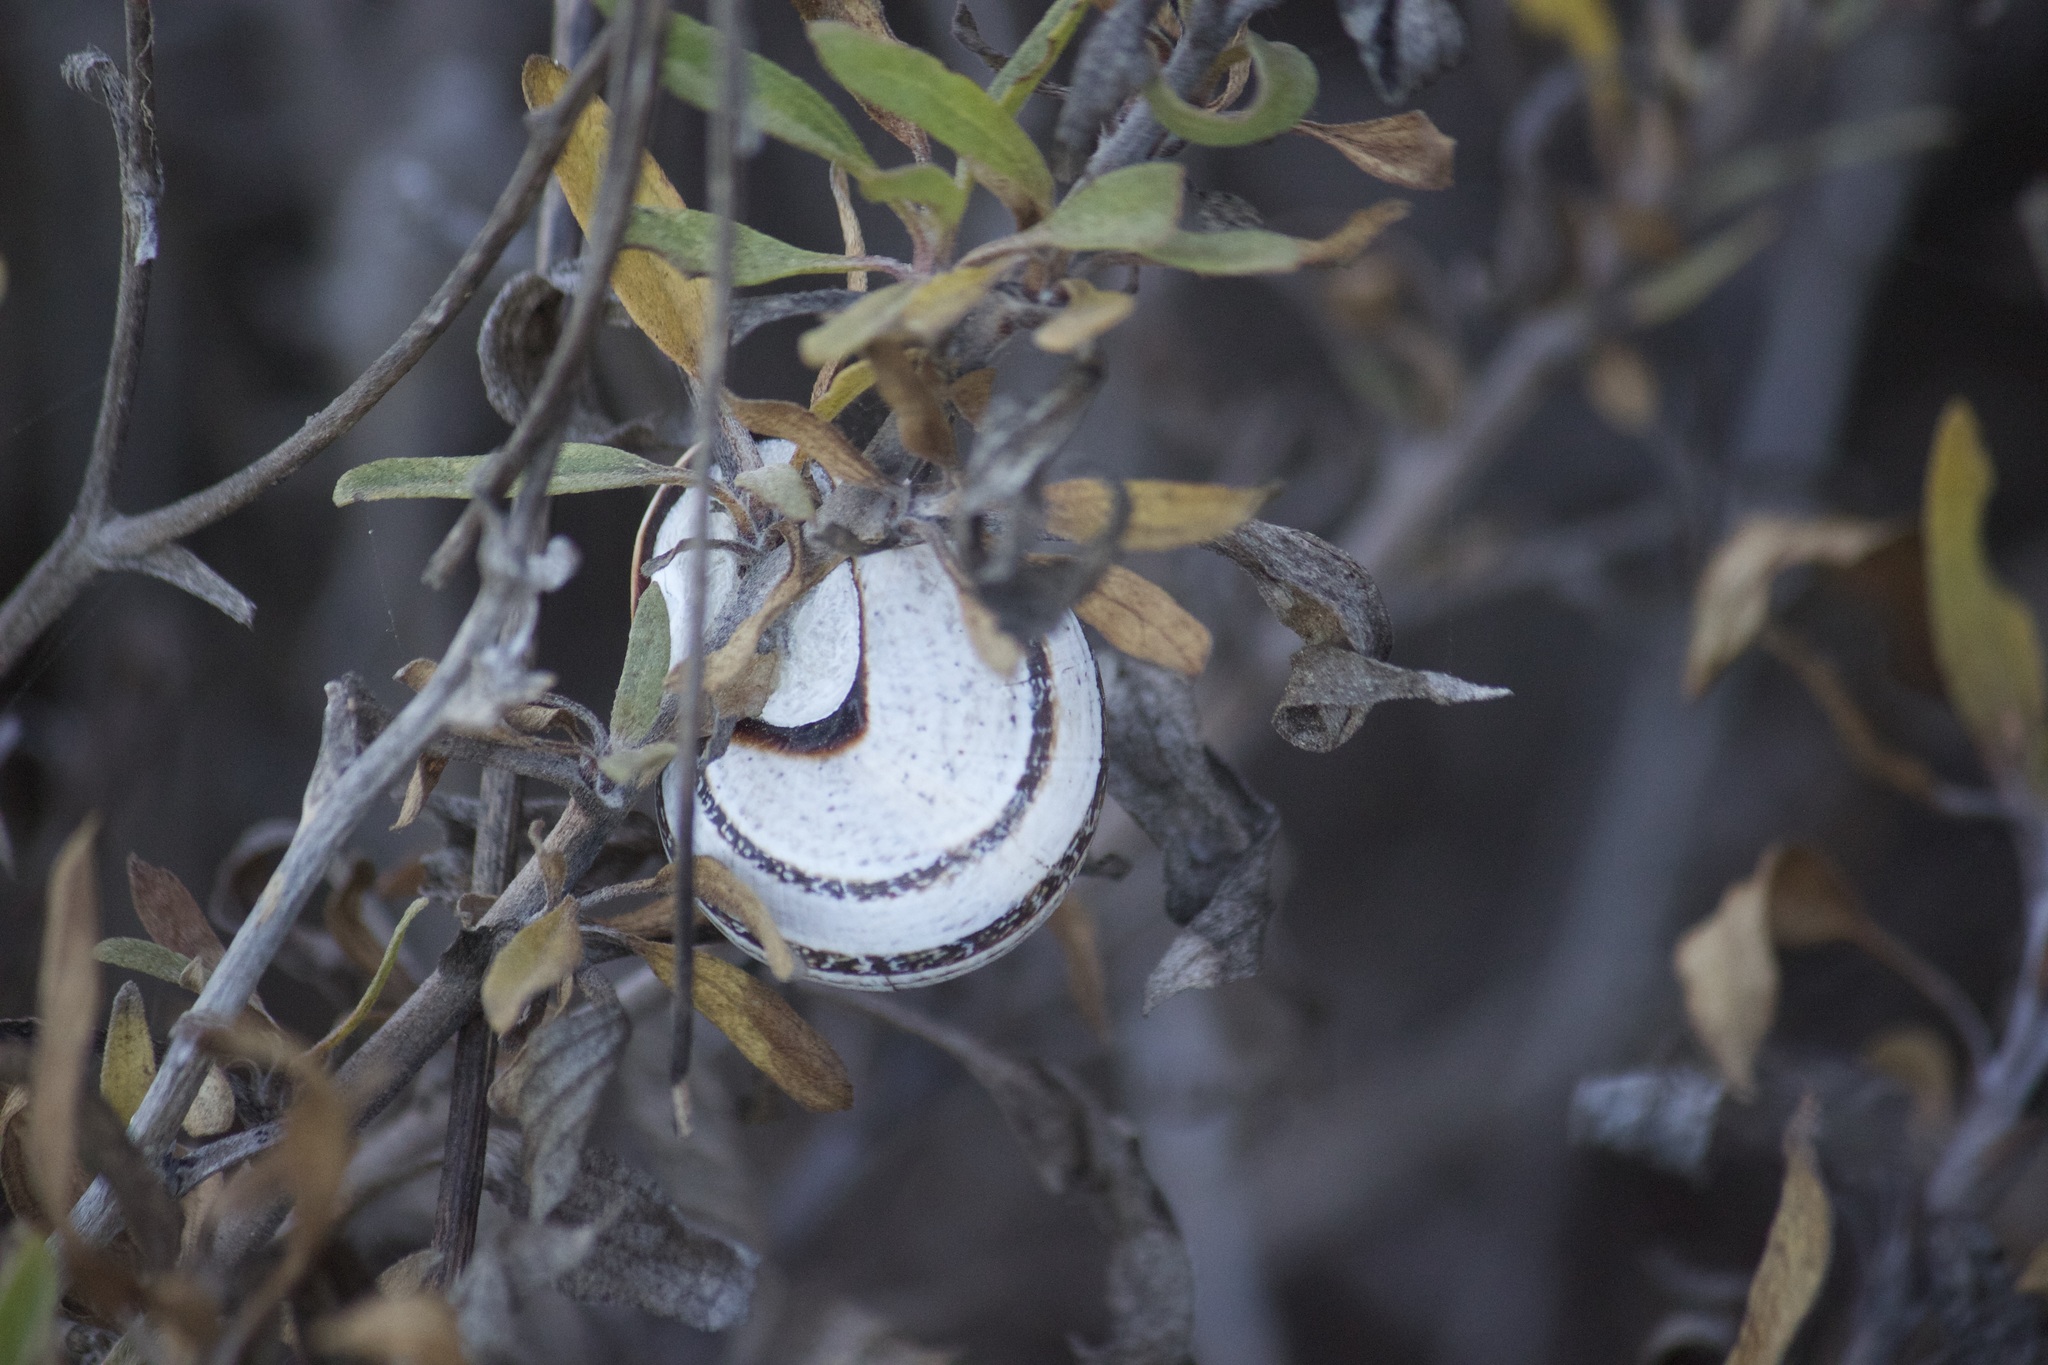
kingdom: Animalia
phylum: Mollusca
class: Gastropoda
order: Stylommatophora
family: Helicidae
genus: Otala
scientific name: Otala lactea
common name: Milk snail
